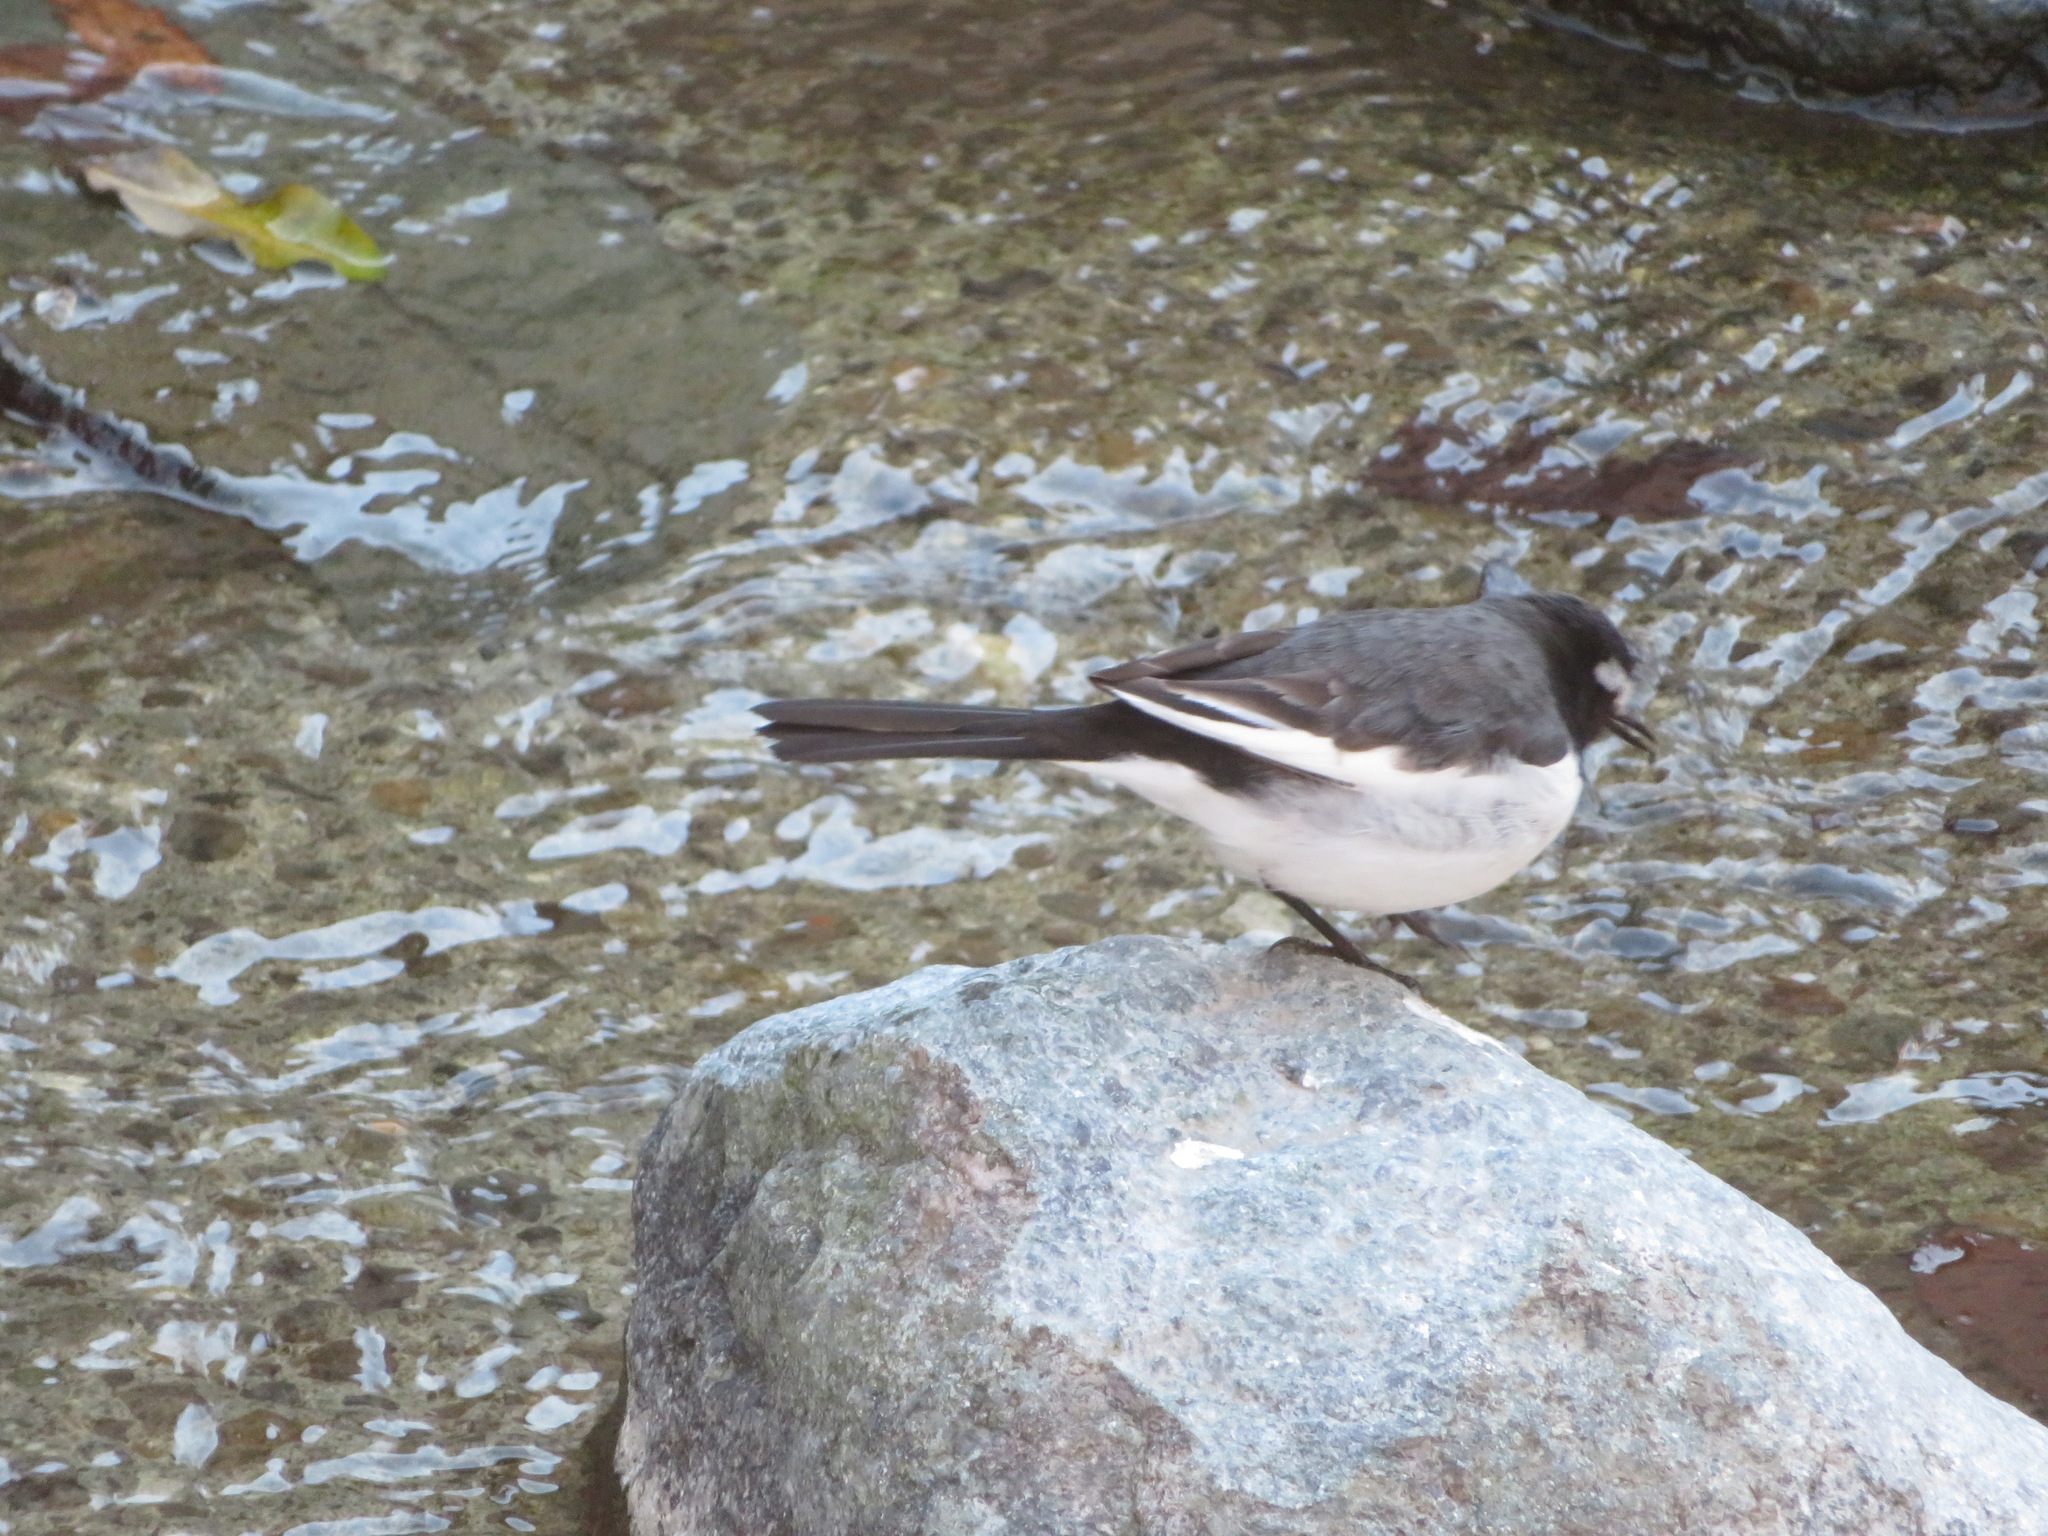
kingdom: Animalia
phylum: Chordata
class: Aves
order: Passeriformes
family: Motacillidae
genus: Motacilla
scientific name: Motacilla grandis
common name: Japanese wagtail
